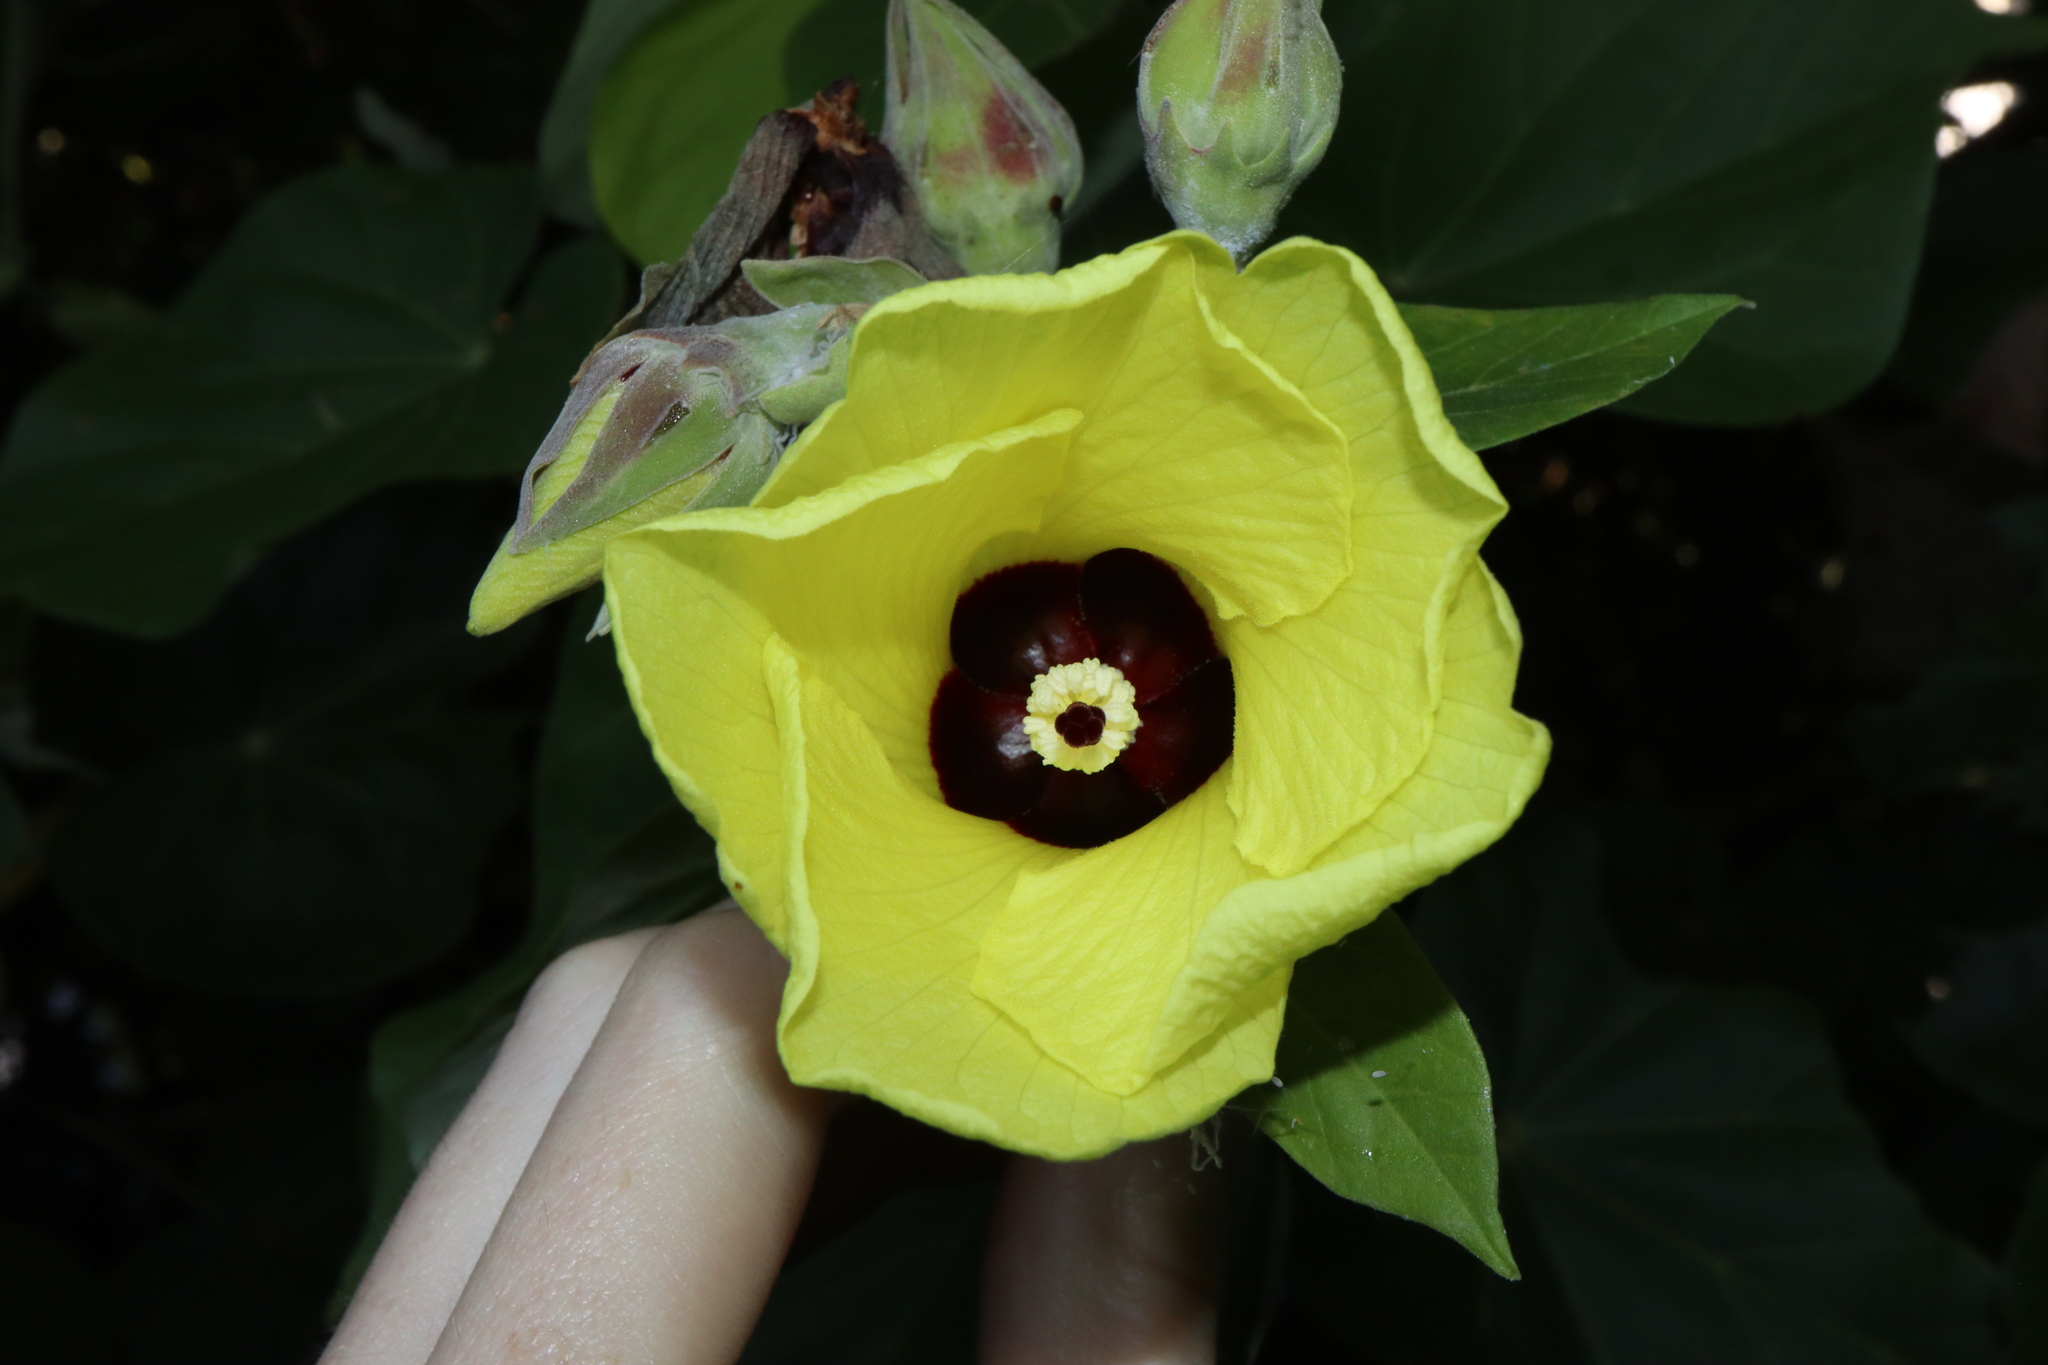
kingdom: Plantae
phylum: Tracheophyta
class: Magnoliopsida
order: Malvales
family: Malvaceae
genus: Talipariti
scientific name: Talipariti tiliaceum
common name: Sea hibiscus
